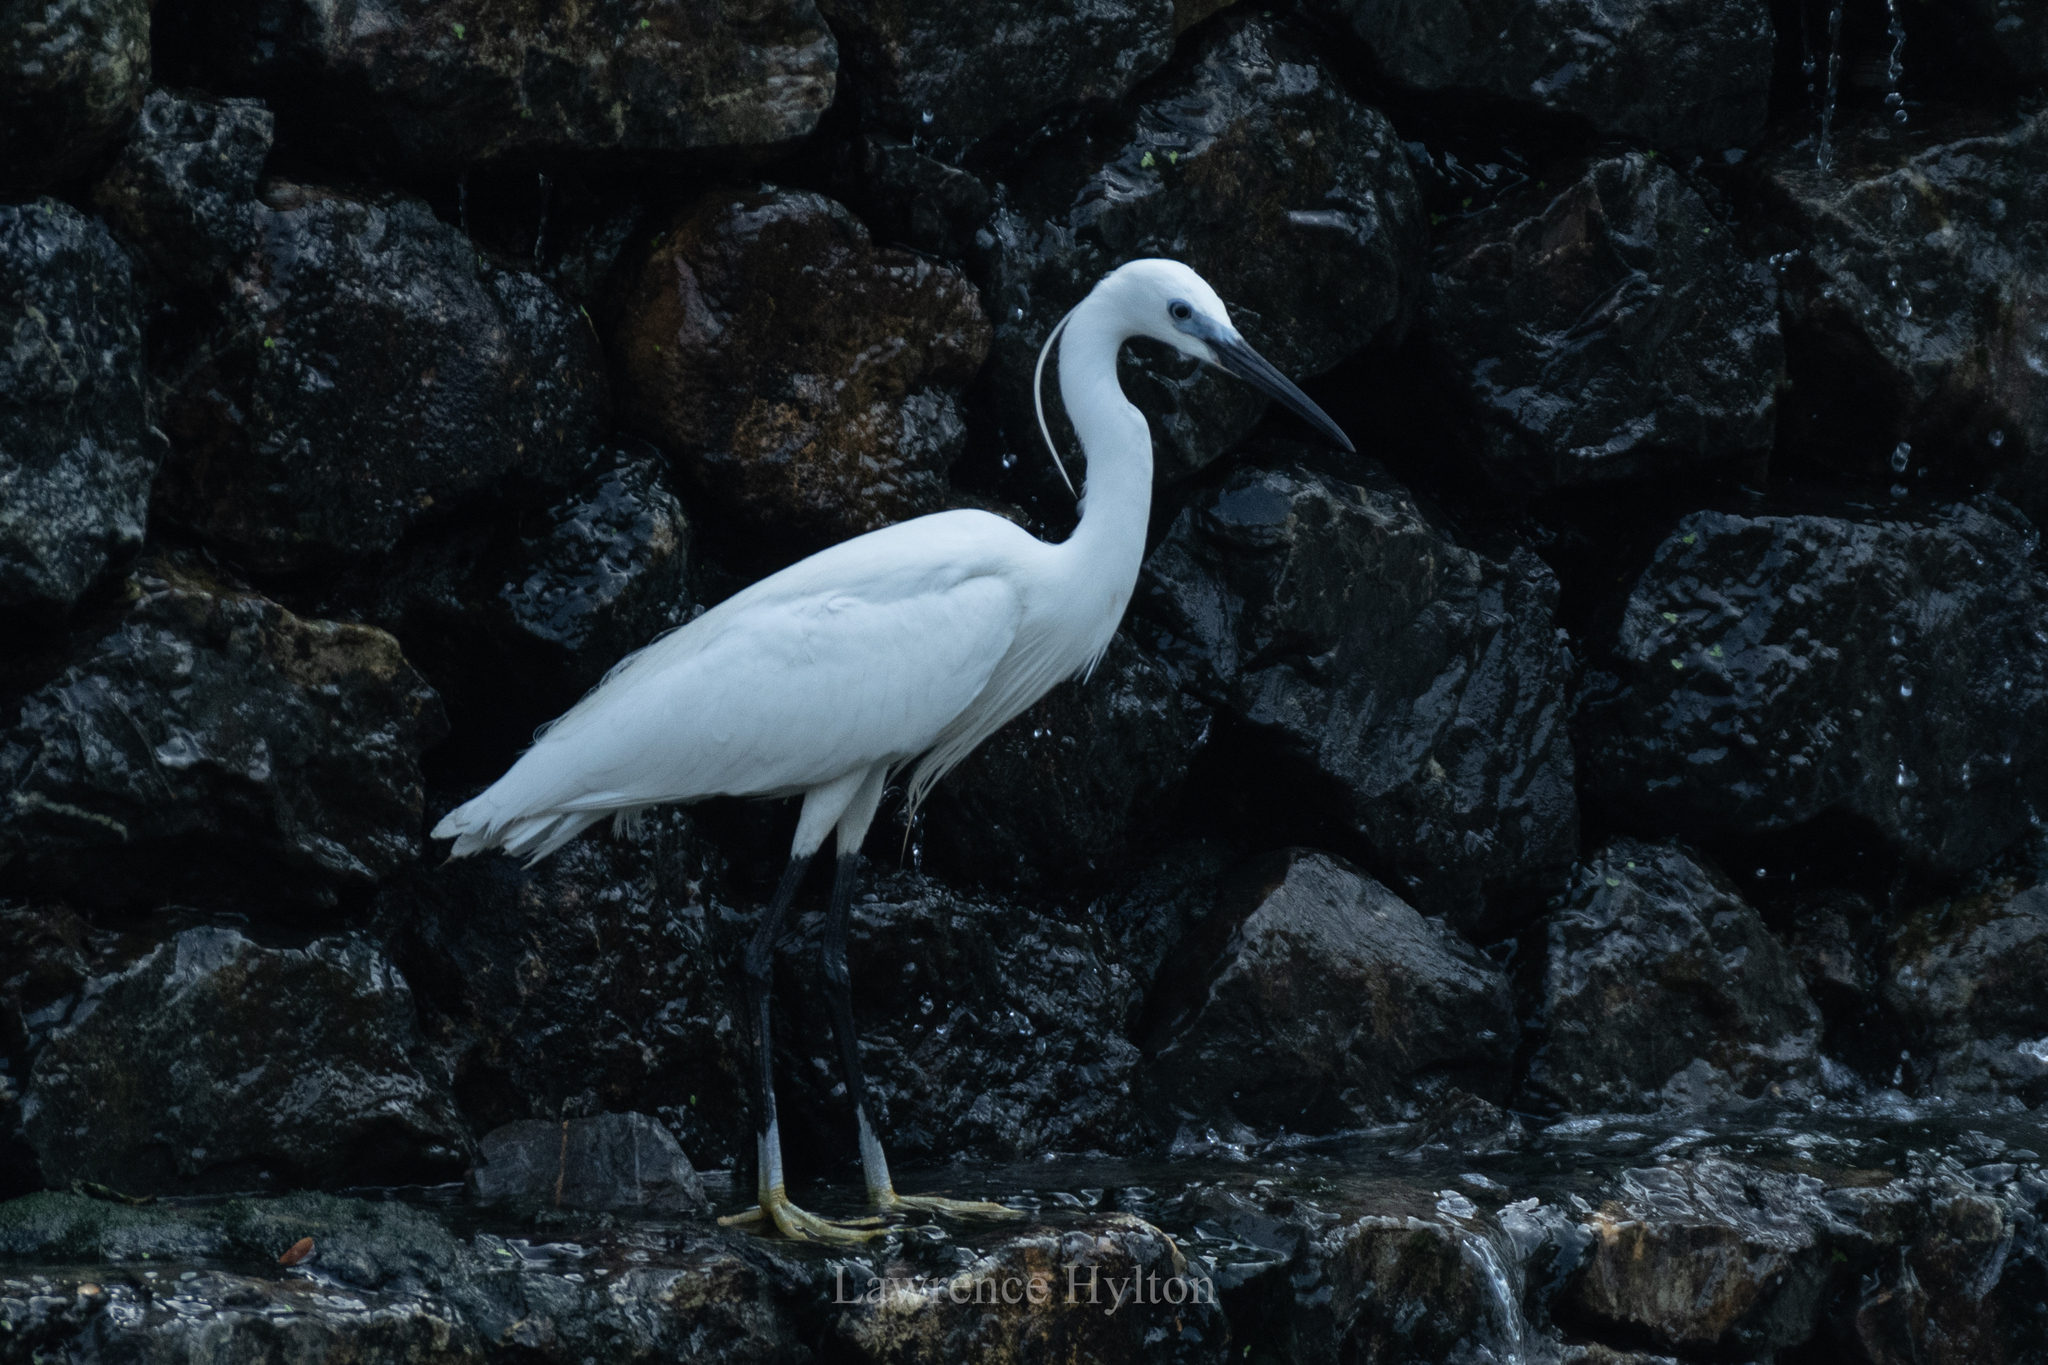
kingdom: Animalia
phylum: Chordata
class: Aves
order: Pelecaniformes
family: Ardeidae
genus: Egretta
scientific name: Egretta garzetta
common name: Little egret
